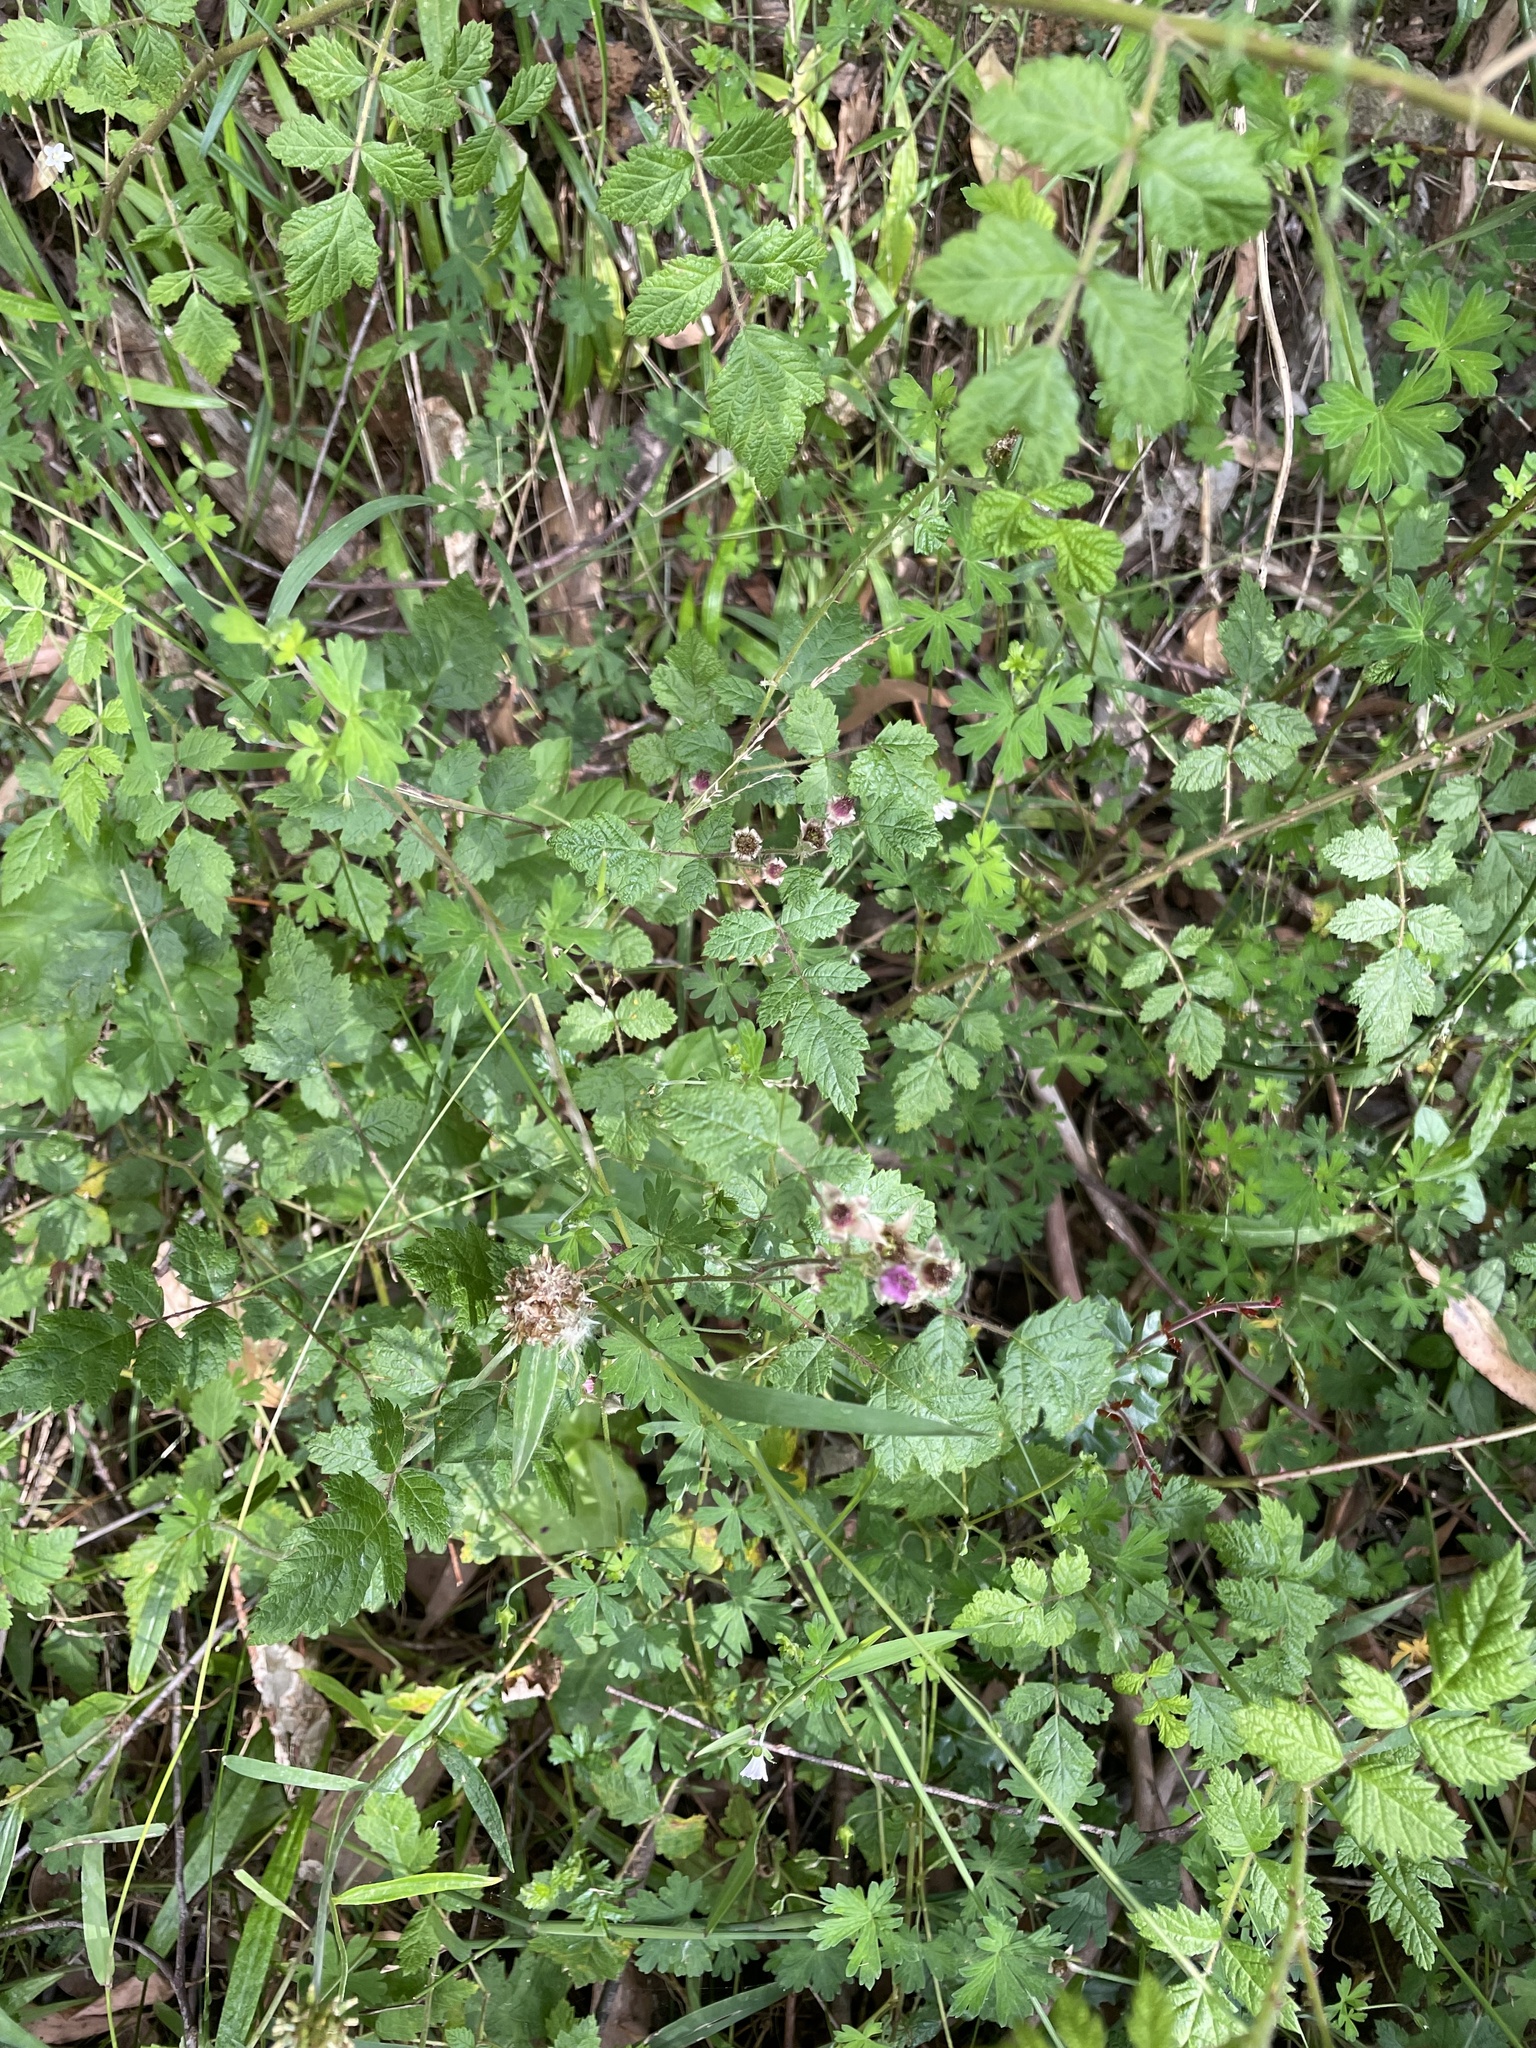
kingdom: Plantae
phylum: Tracheophyta
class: Magnoliopsida
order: Rosales
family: Rosaceae
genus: Rubus
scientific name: Rubus parvifolius
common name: Threeleaf blackberry
